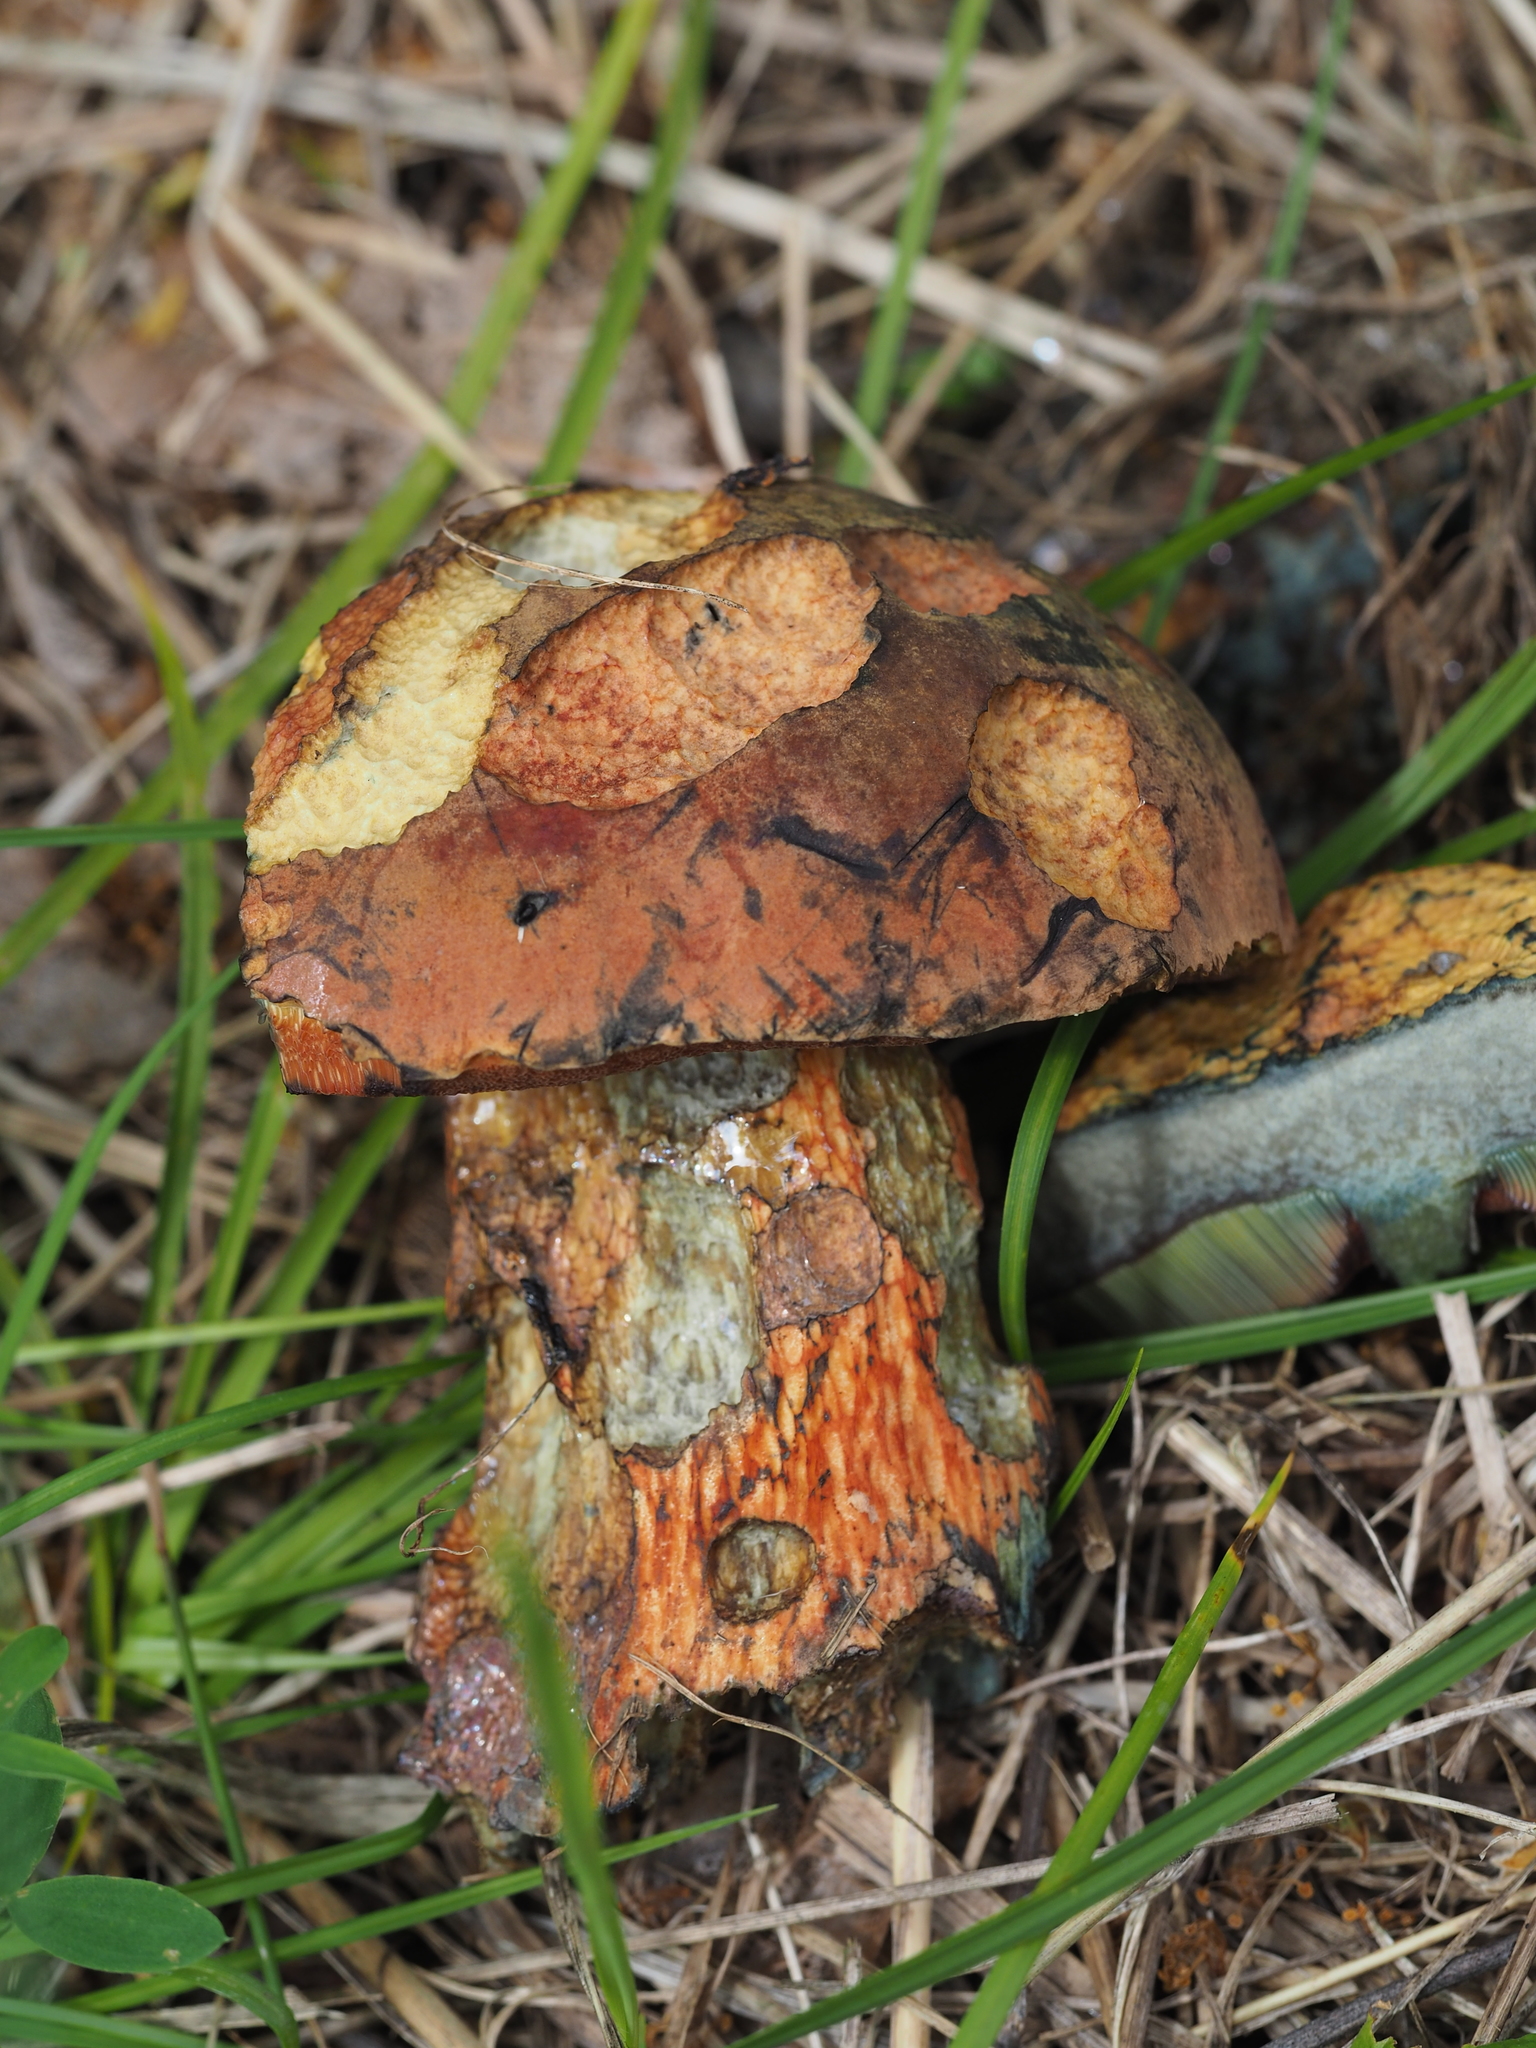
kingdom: Fungi
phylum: Basidiomycota
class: Agaricomycetes
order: Boletales
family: Boletaceae
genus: Suillellus
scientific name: Suillellus luridus
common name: Lurid bolete
